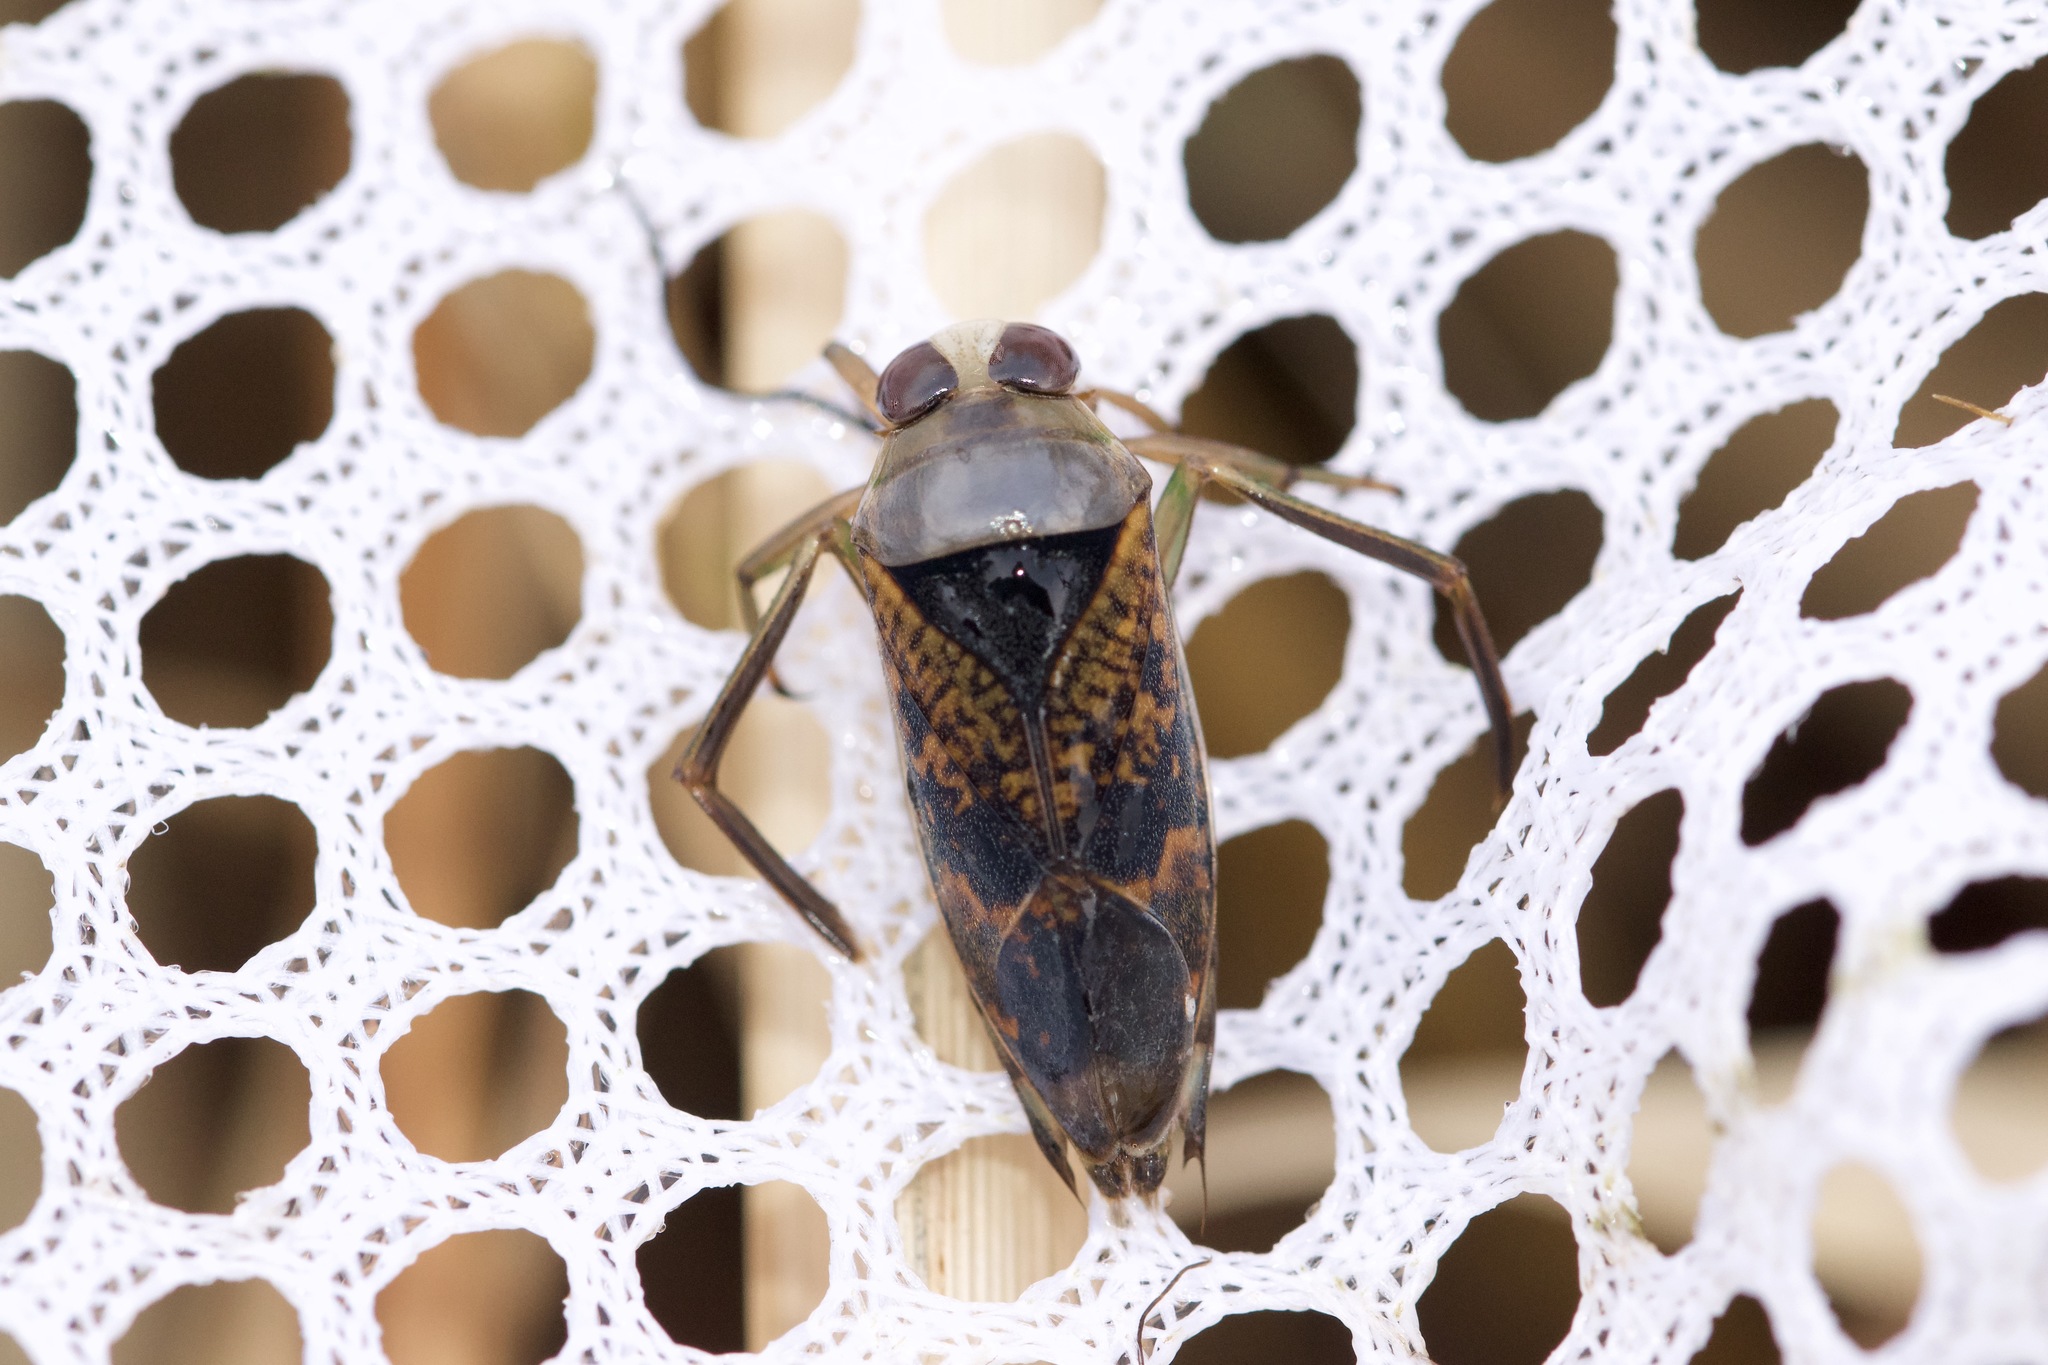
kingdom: Animalia
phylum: Arthropoda
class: Insecta
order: Hemiptera
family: Notonectidae
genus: Notonecta
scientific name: Notonecta irrorata
